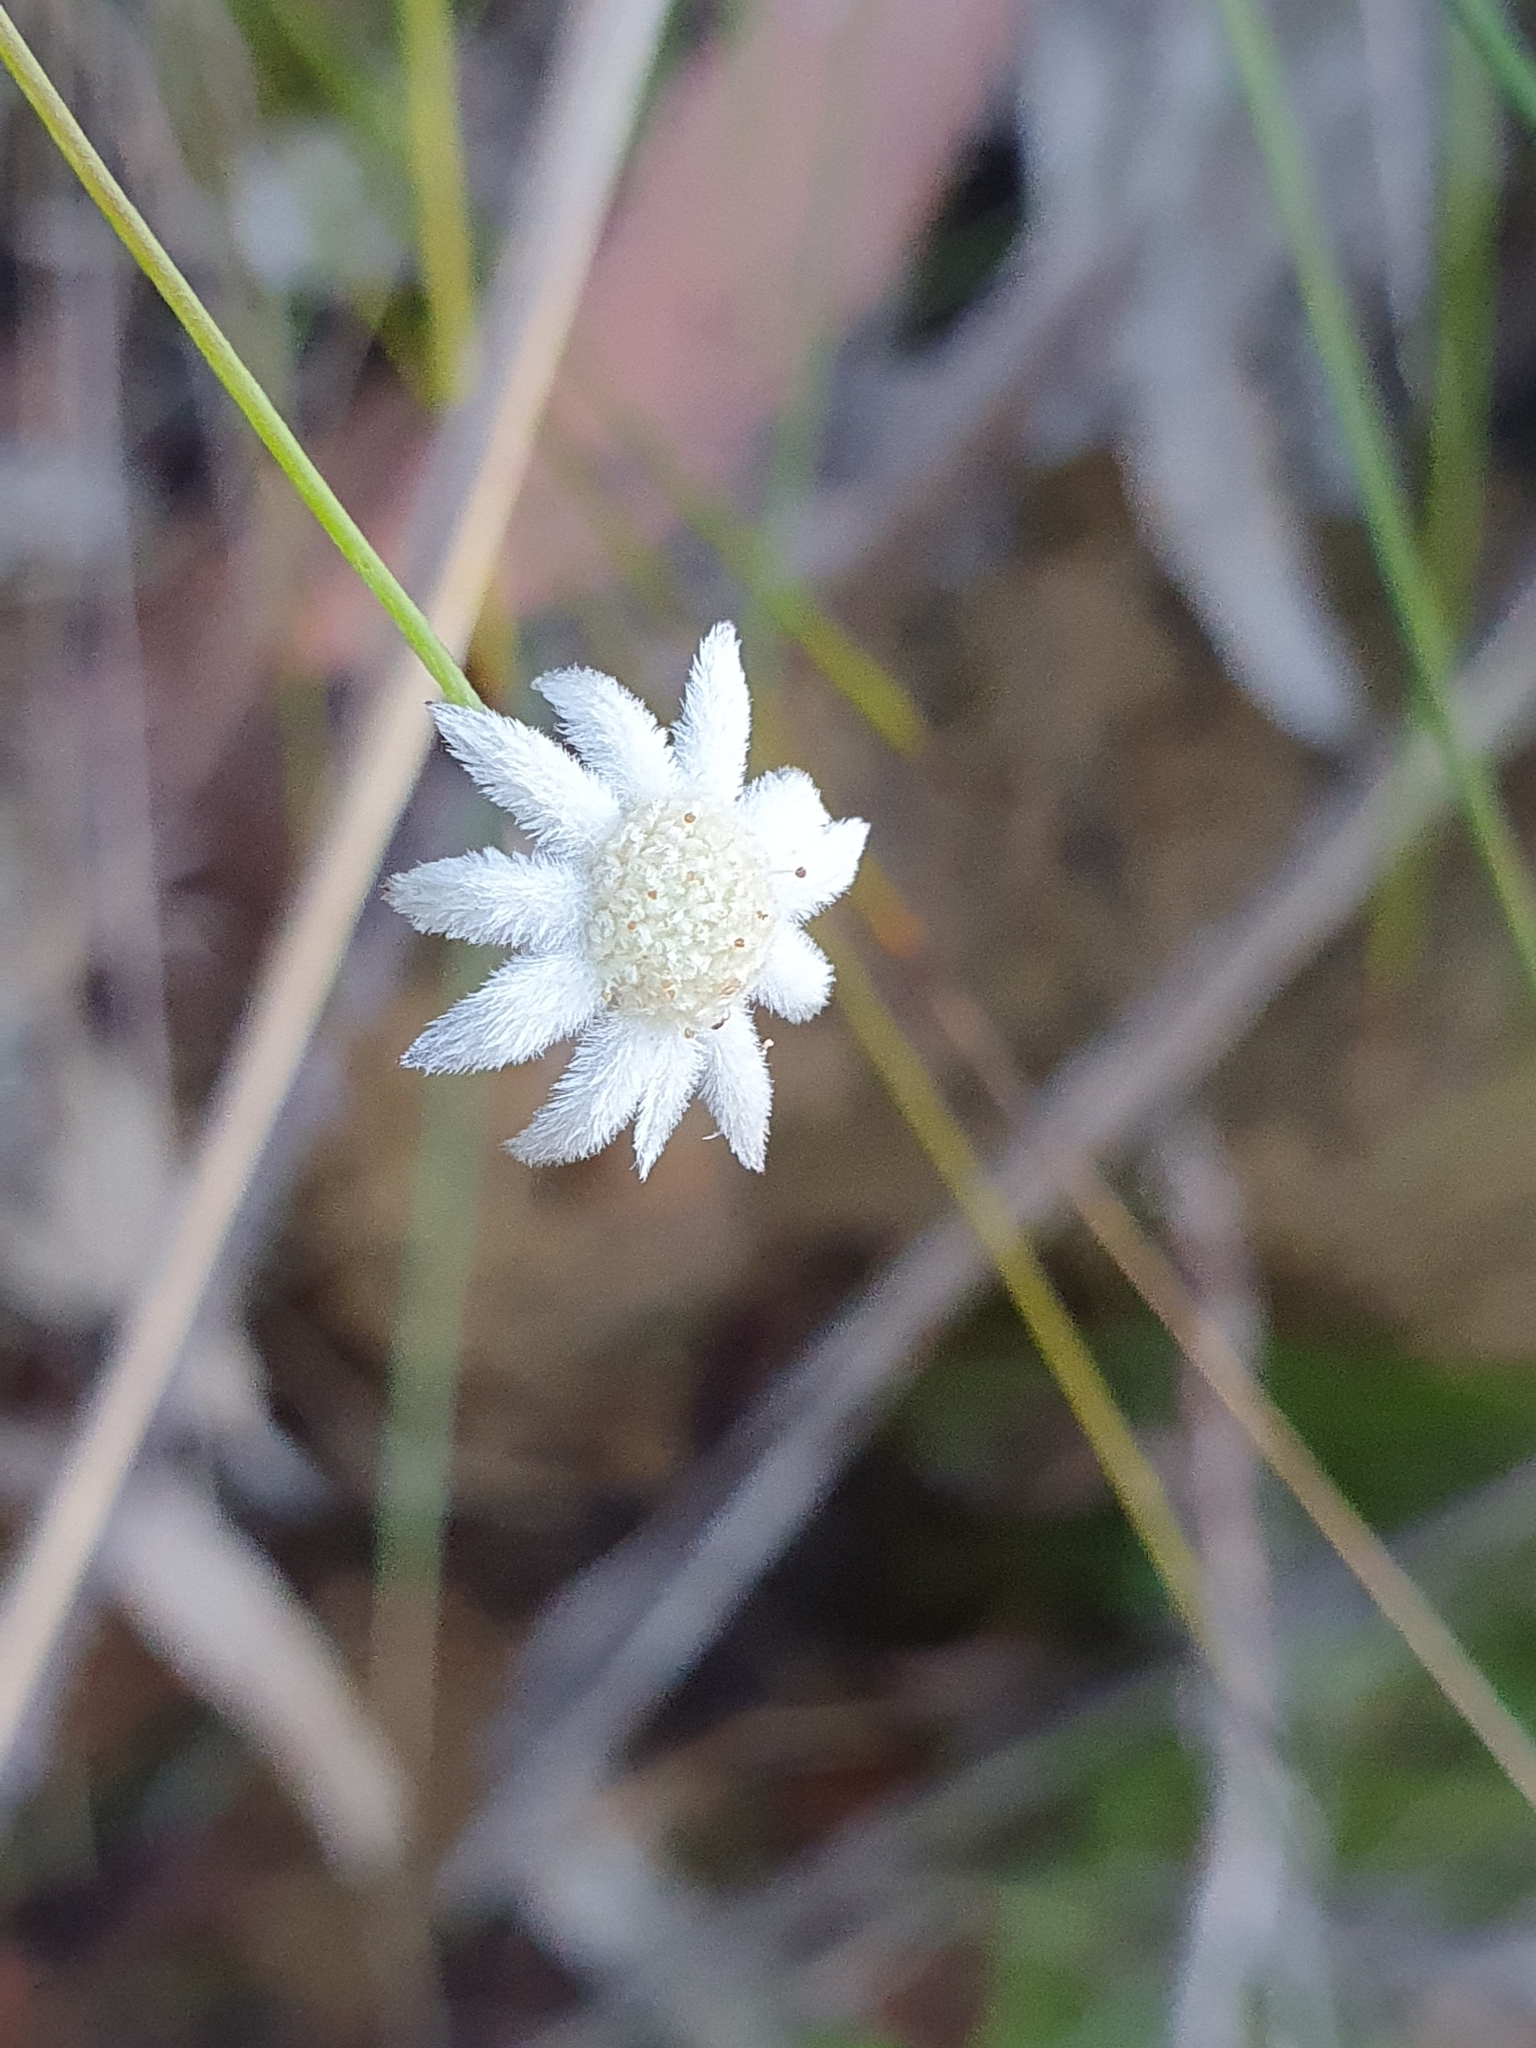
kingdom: Plantae
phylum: Tracheophyta
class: Magnoliopsida
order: Apiales
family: Apiaceae
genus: Actinotus
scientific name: Actinotus minor
